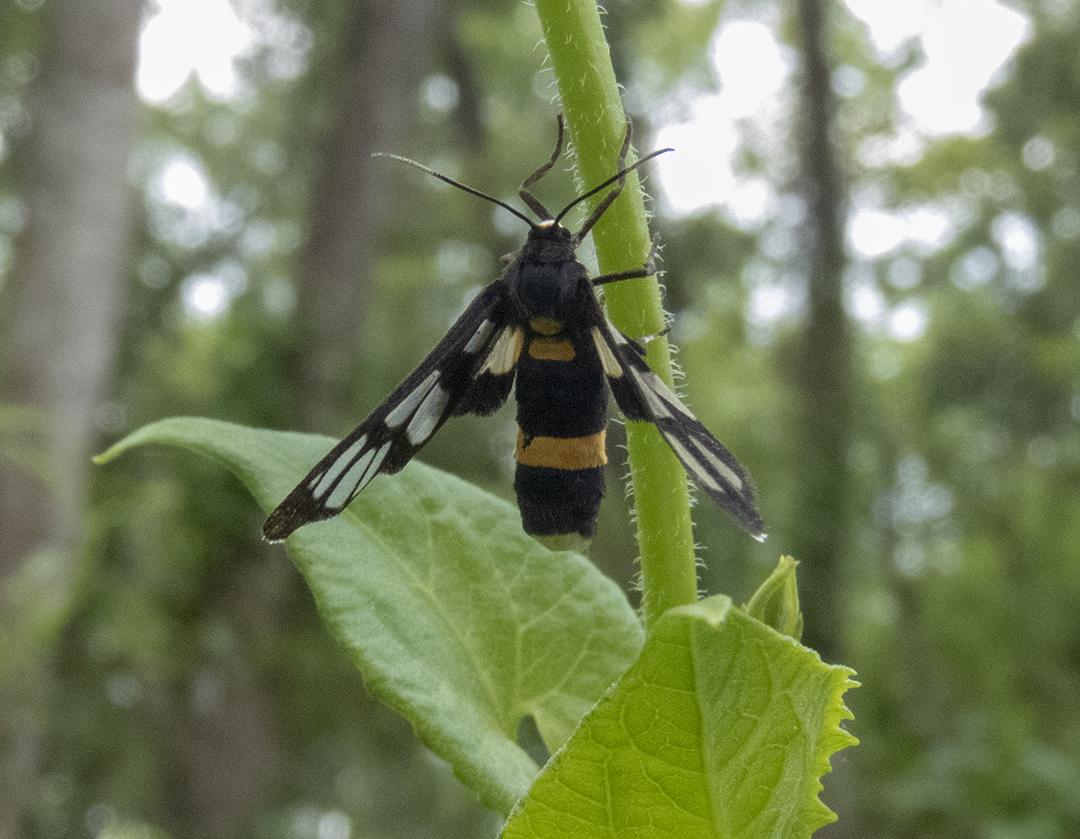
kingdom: Animalia
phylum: Arthropoda
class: Insecta
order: Lepidoptera
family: Erebidae
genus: Amata
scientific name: Amata sperbius
